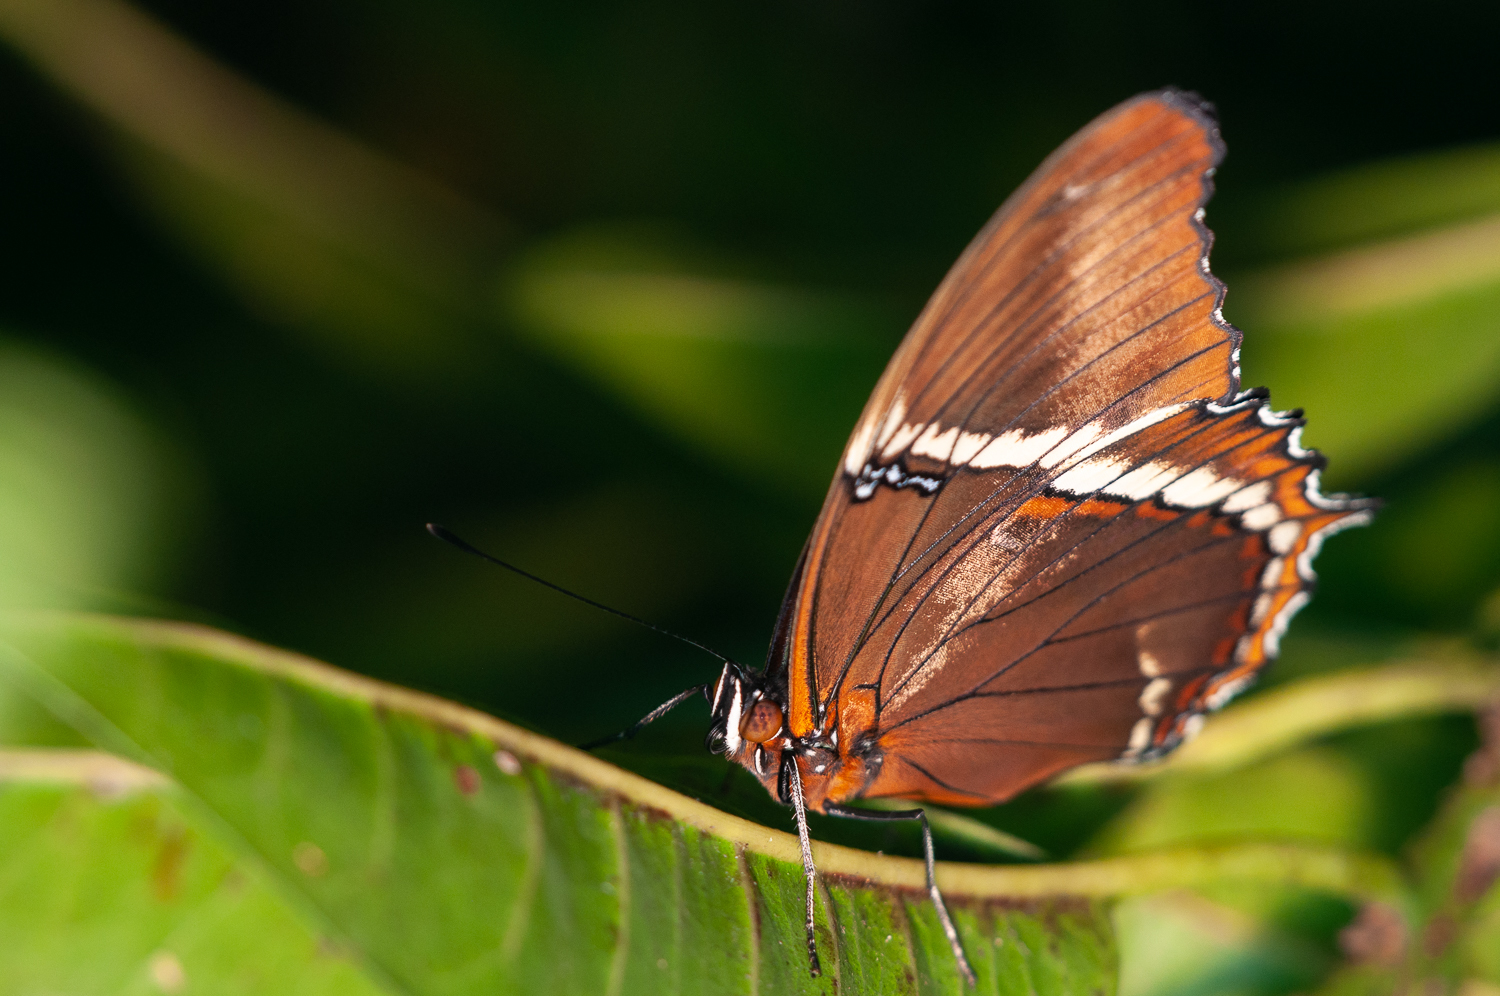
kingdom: Animalia
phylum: Arthropoda
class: Insecta
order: Lepidoptera
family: Nymphalidae
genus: Siproeta
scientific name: Siproeta epaphus
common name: Rusty-tipped page
